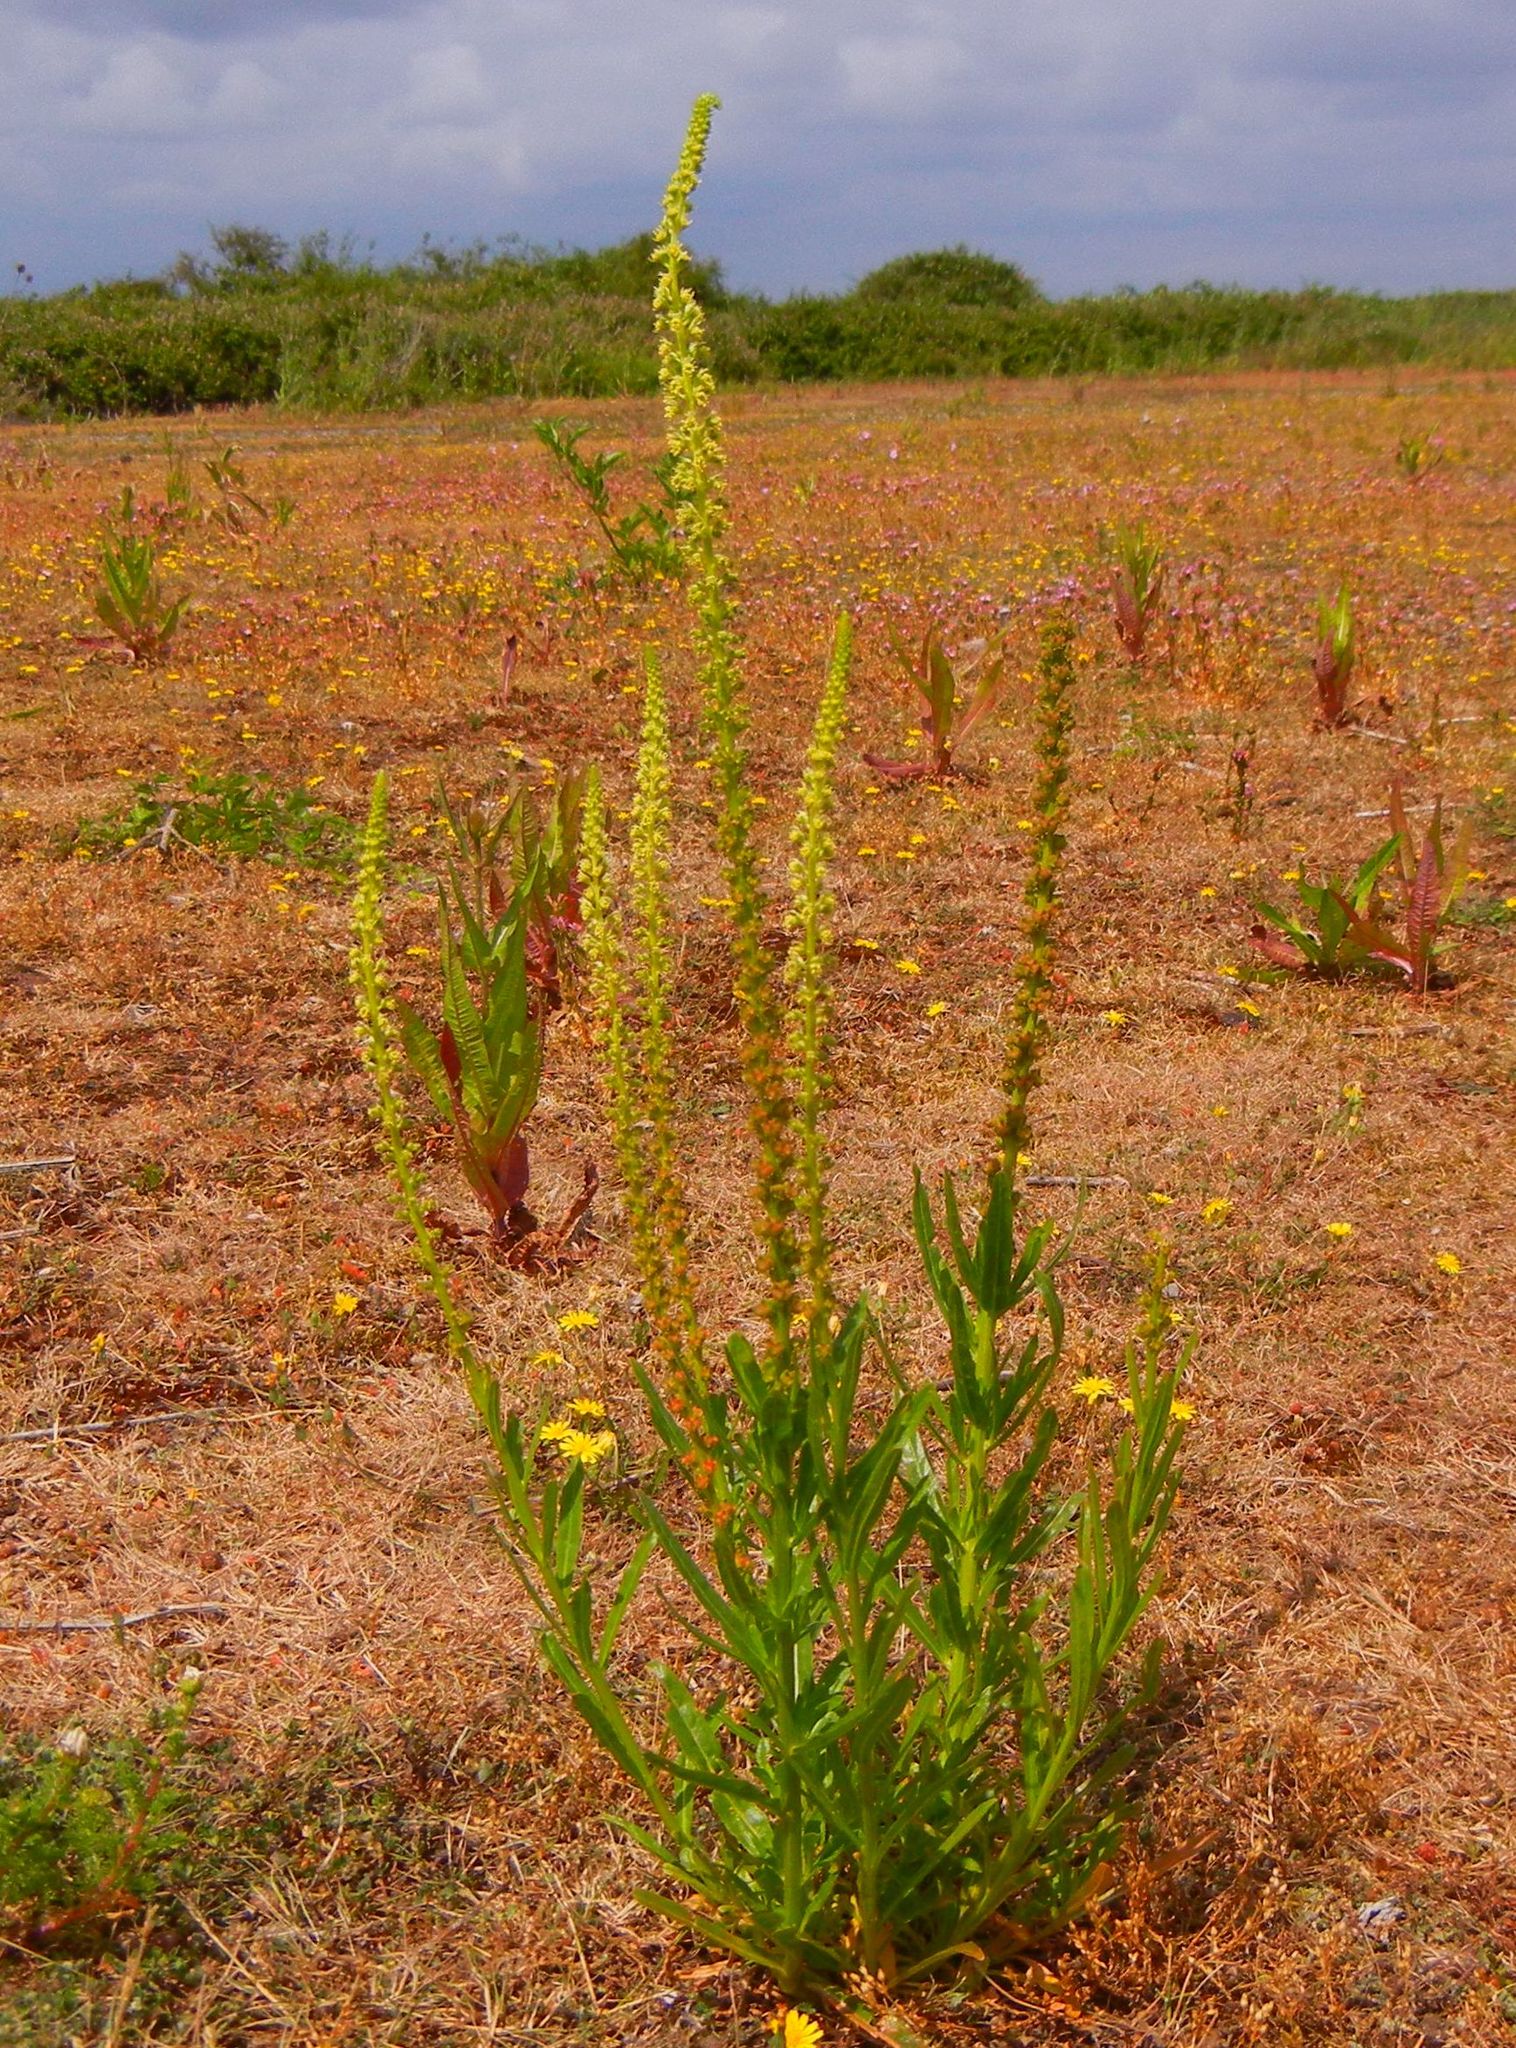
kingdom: Plantae
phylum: Tracheophyta
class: Magnoliopsida
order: Brassicales
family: Resedaceae
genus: Reseda
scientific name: Reseda luteola
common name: Weld
